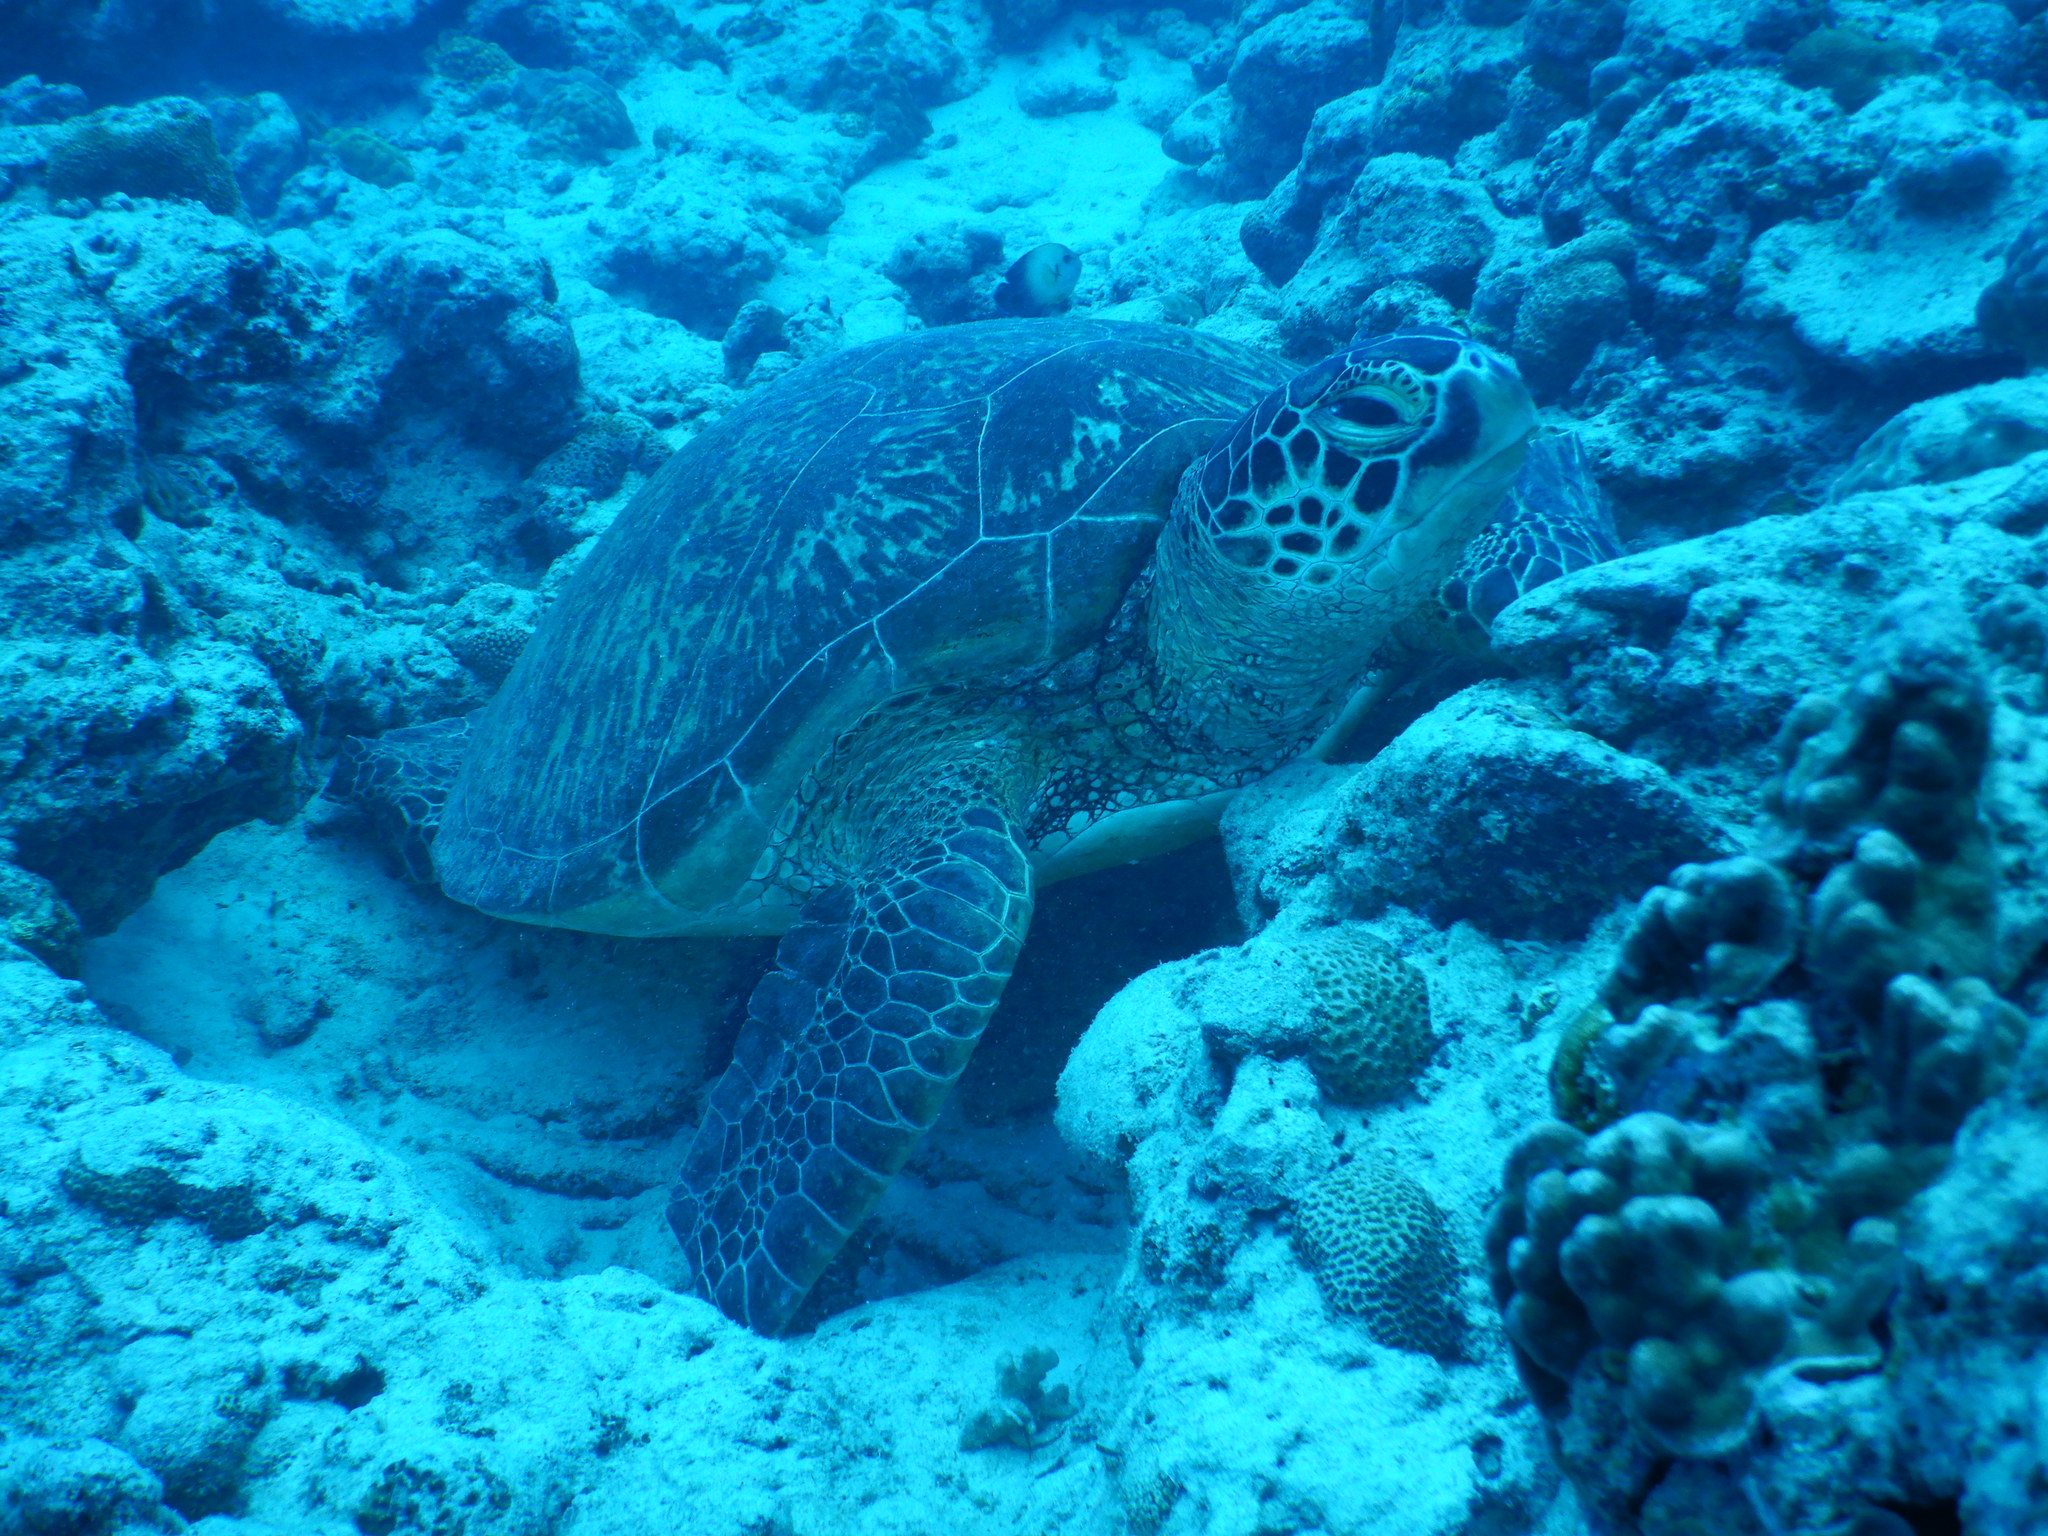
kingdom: Animalia
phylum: Chordata
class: Testudines
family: Cheloniidae
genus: Chelonia
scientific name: Chelonia mydas
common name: Green turtle
